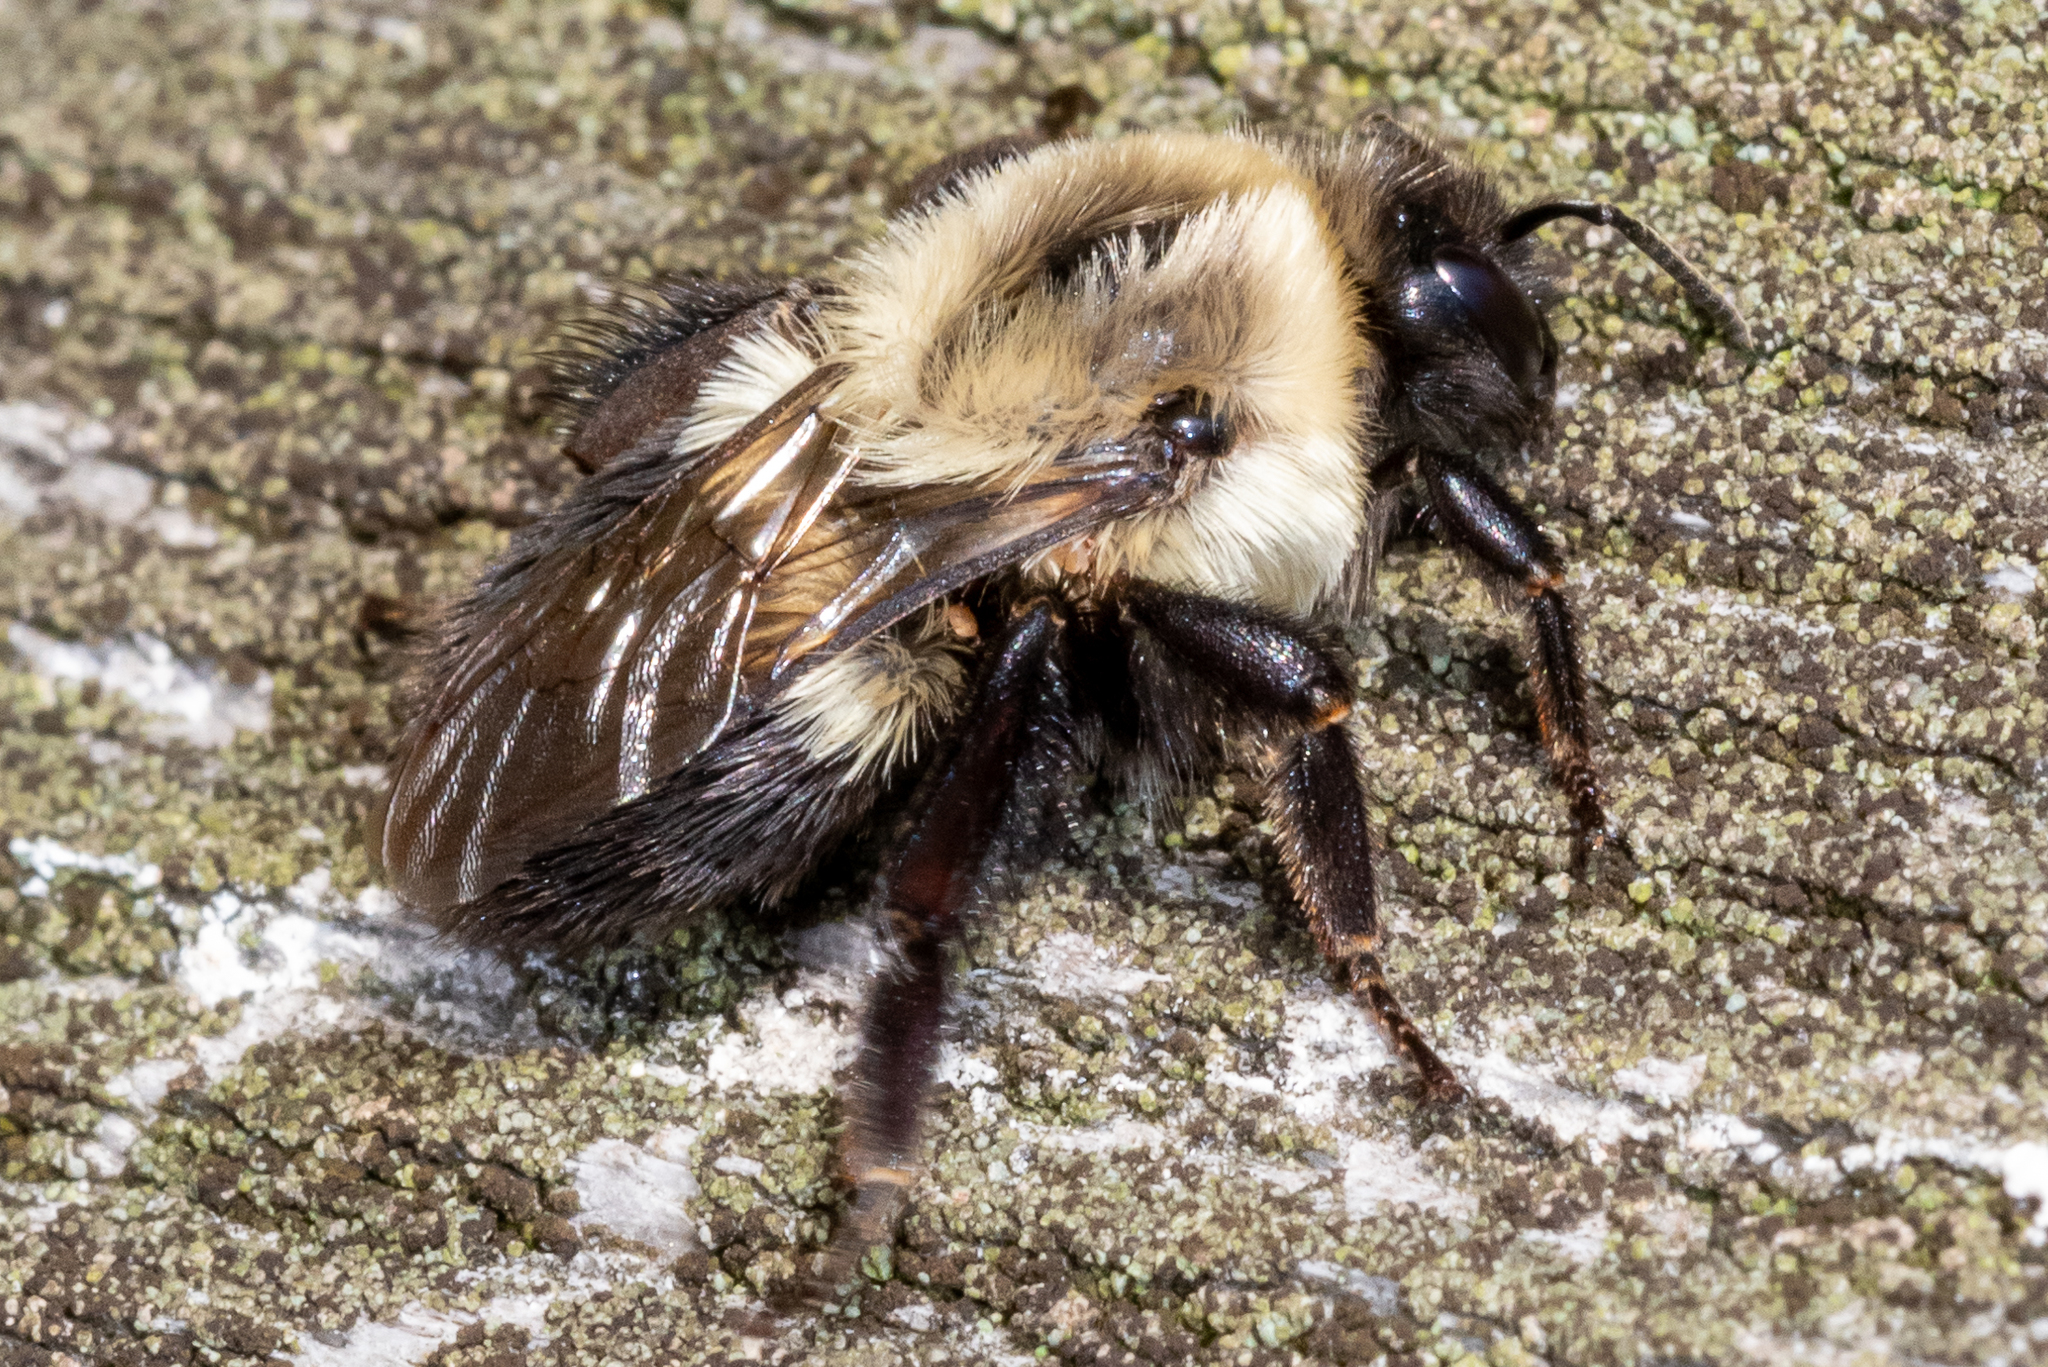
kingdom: Animalia
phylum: Arthropoda
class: Insecta
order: Hymenoptera
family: Apidae
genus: Bombus
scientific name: Bombus impatiens
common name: Common eastern bumble bee
